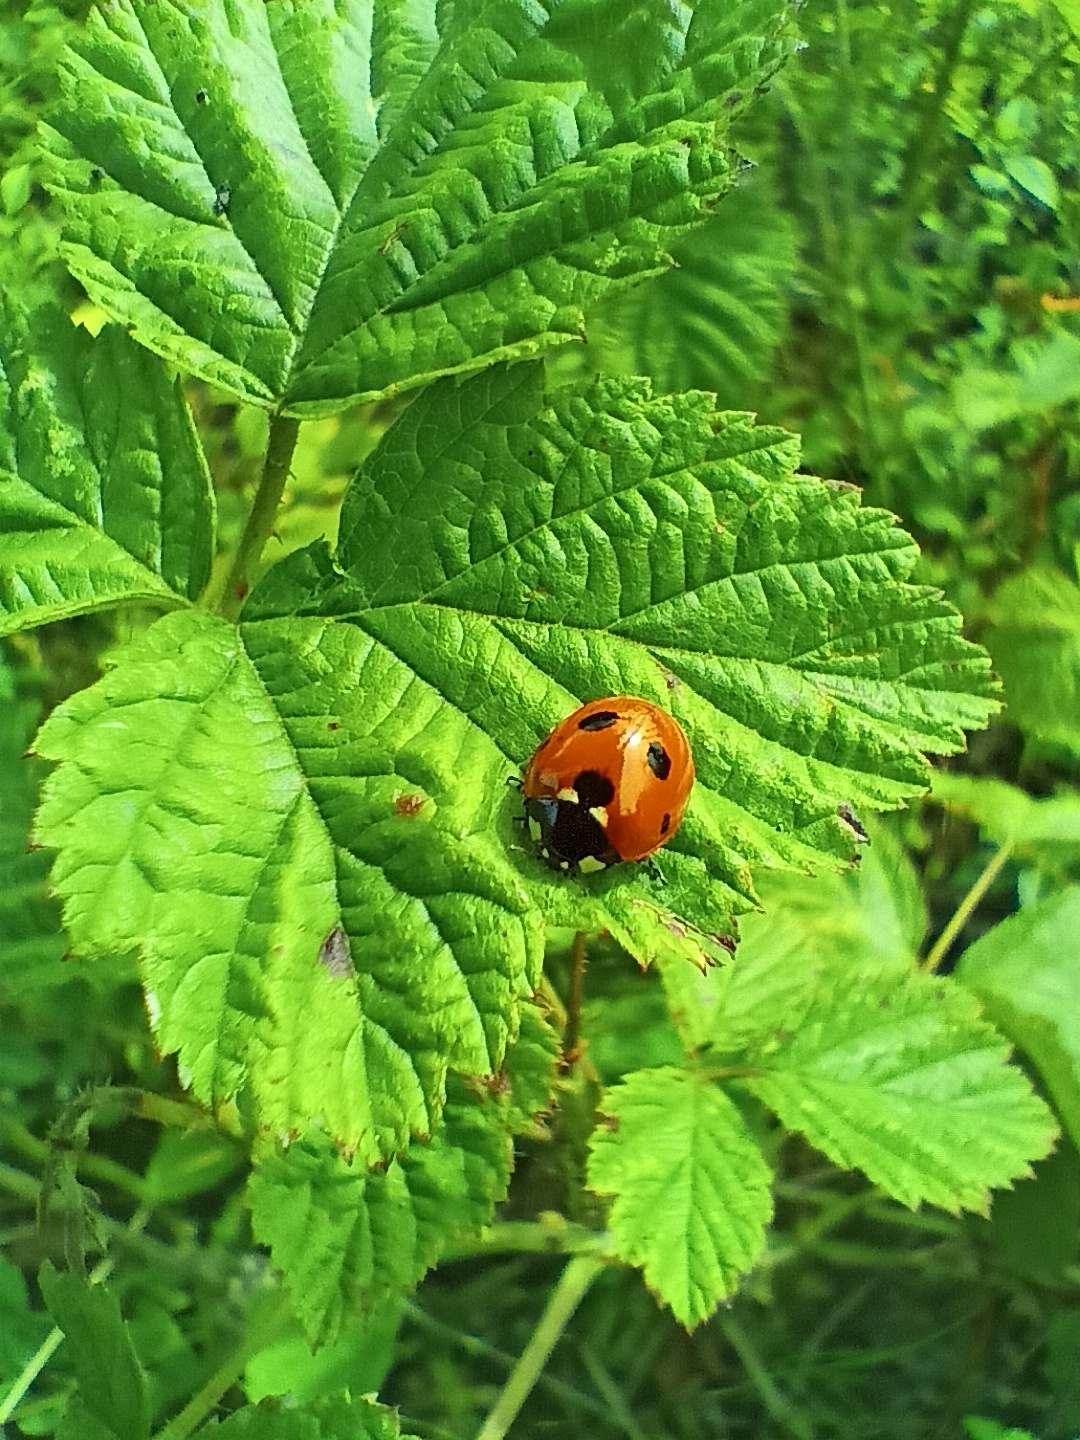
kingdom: Animalia
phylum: Arthropoda
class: Insecta
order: Coleoptera
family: Coccinellidae
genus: Coccinella
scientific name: Coccinella septempunctata
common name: Sevenspotted lady beetle
